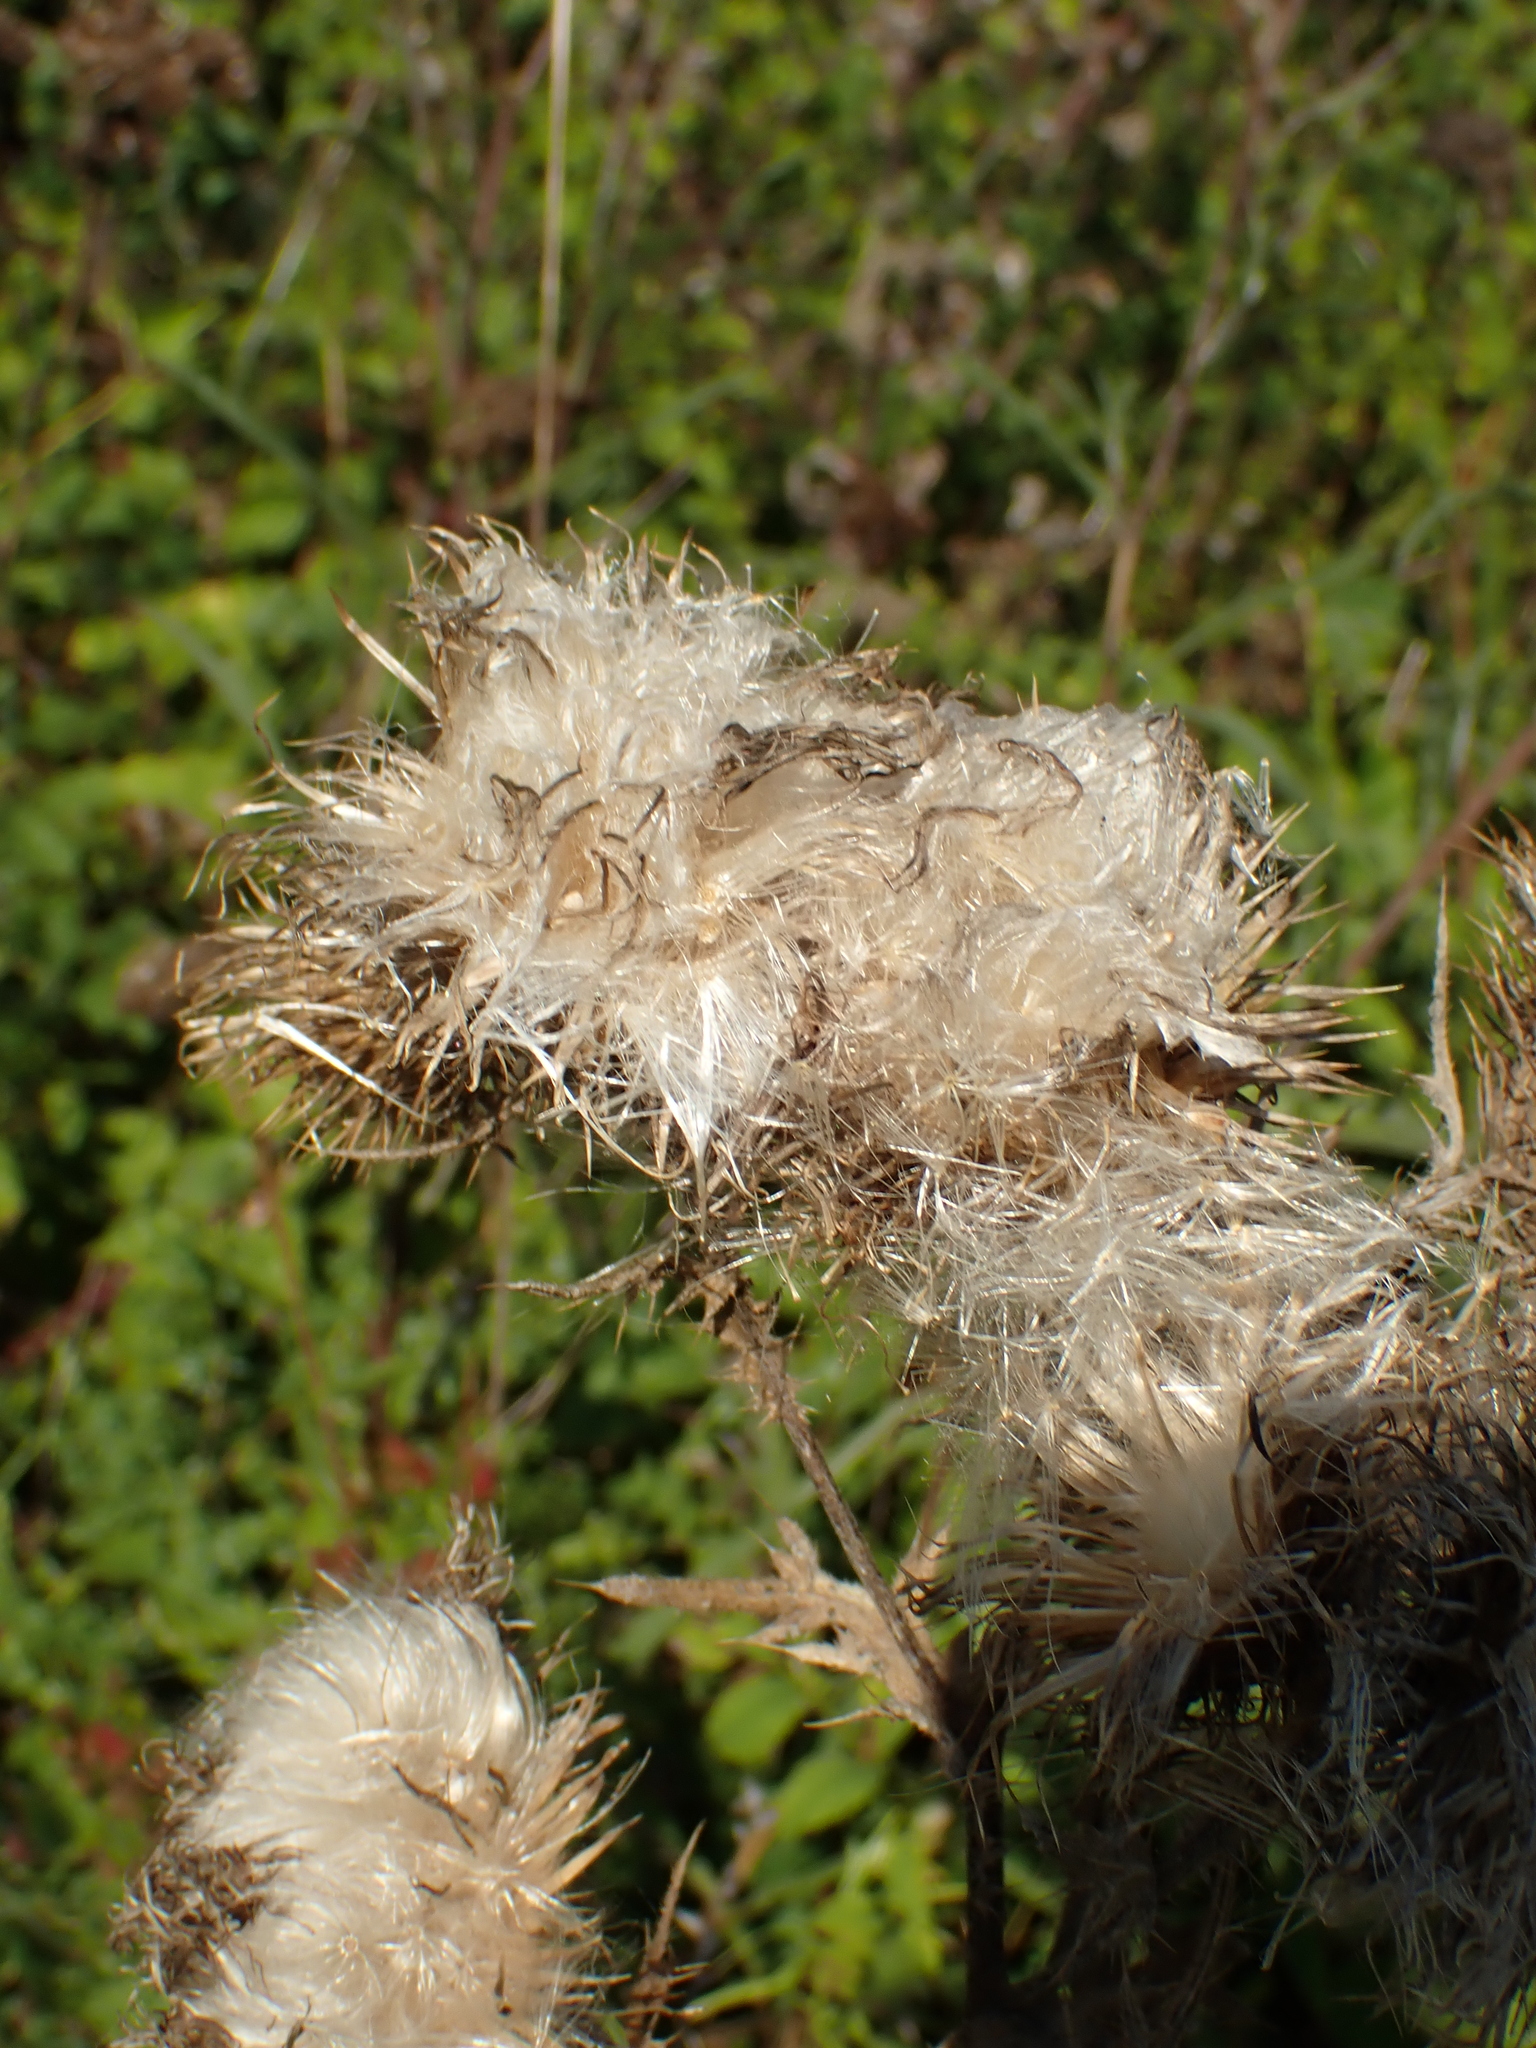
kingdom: Plantae
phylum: Tracheophyta
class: Magnoliopsida
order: Asterales
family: Asteraceae
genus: Cirsium
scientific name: Cirsium vulgare
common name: Bull thistle
